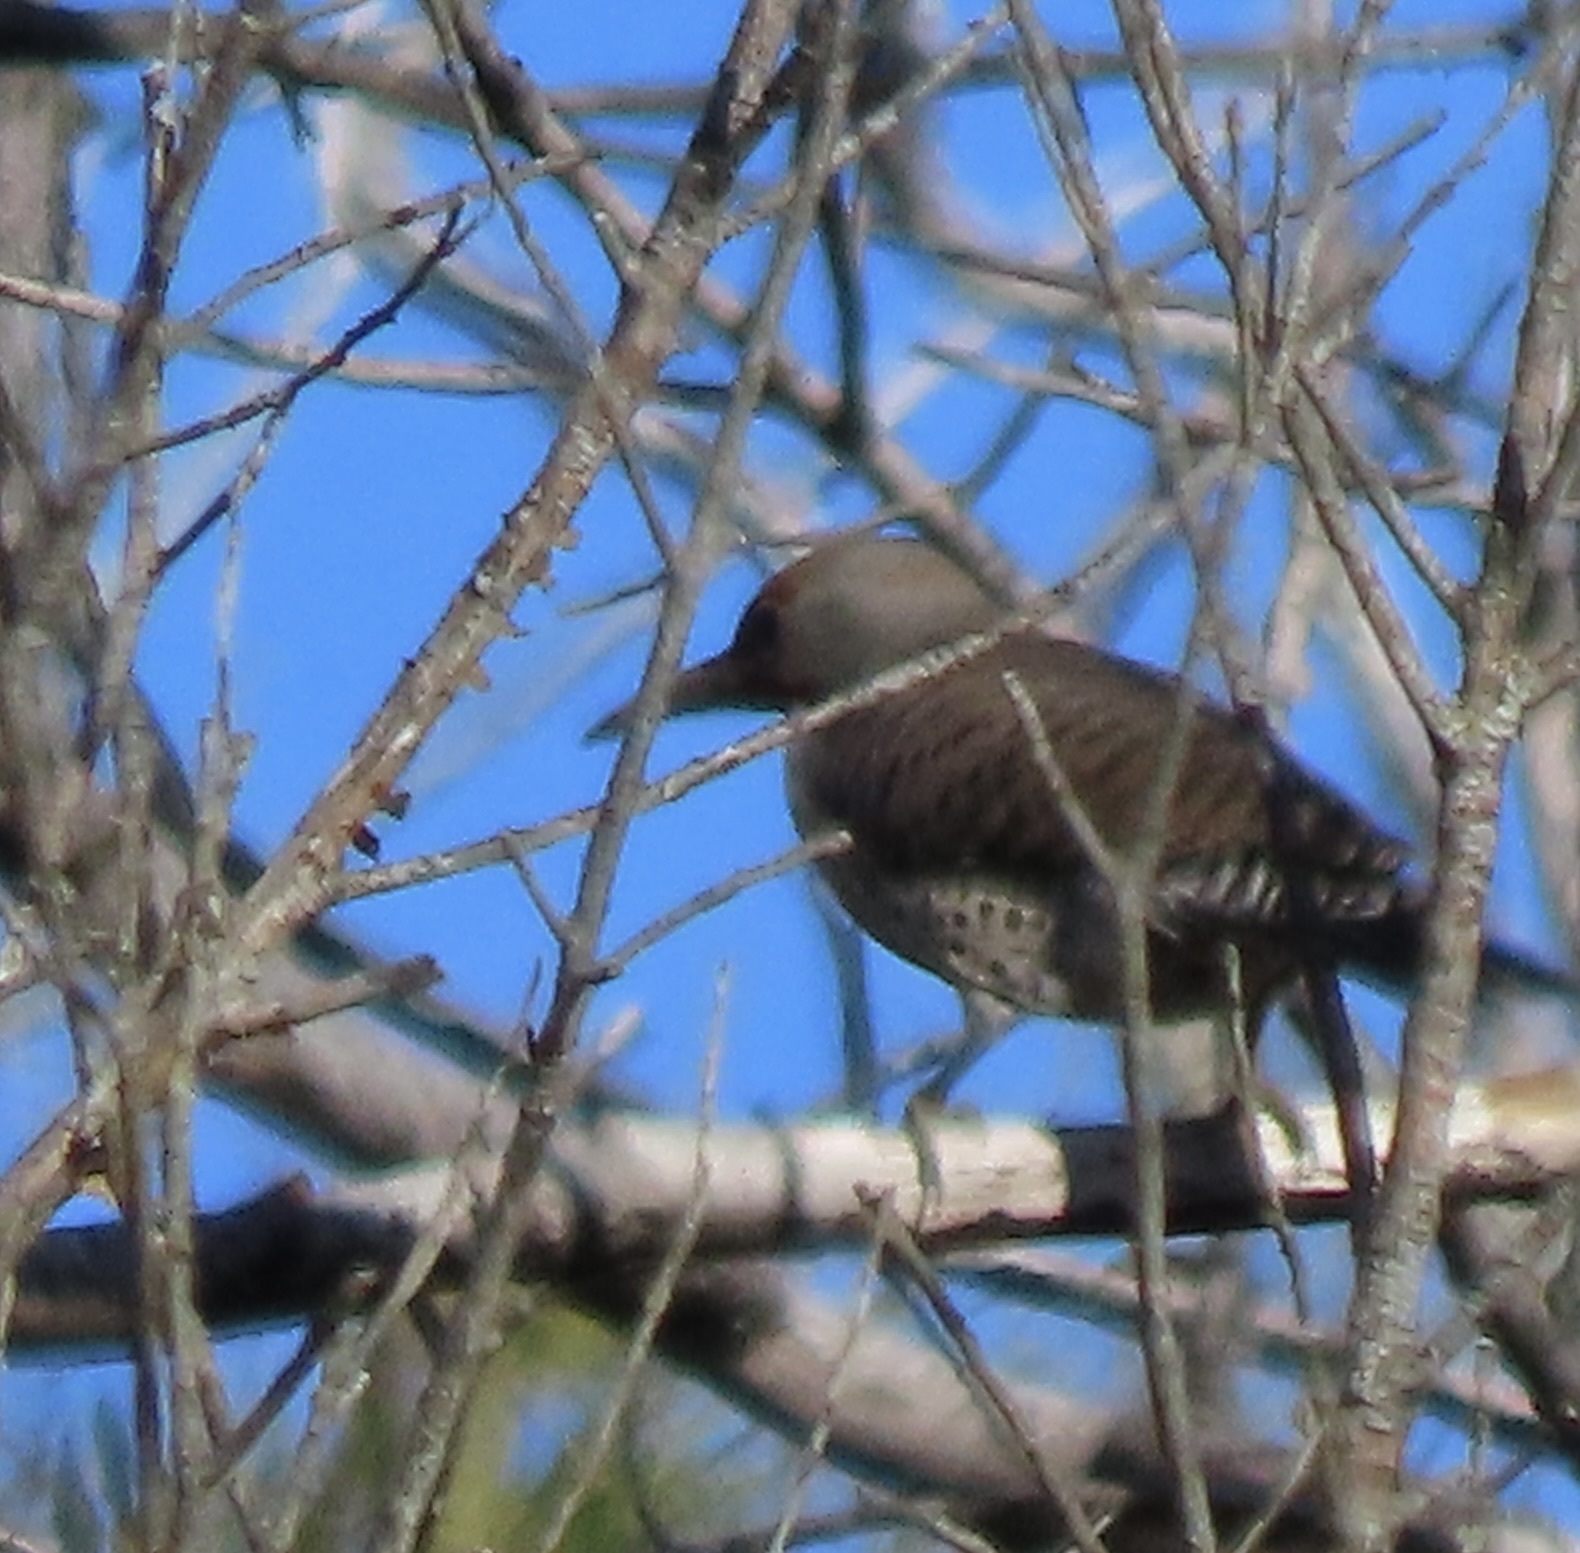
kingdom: Animalia
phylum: Chordata
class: Aves
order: Piciformes
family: Picidae
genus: Colaptes
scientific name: Colaptes auratus
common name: Northern flicker
